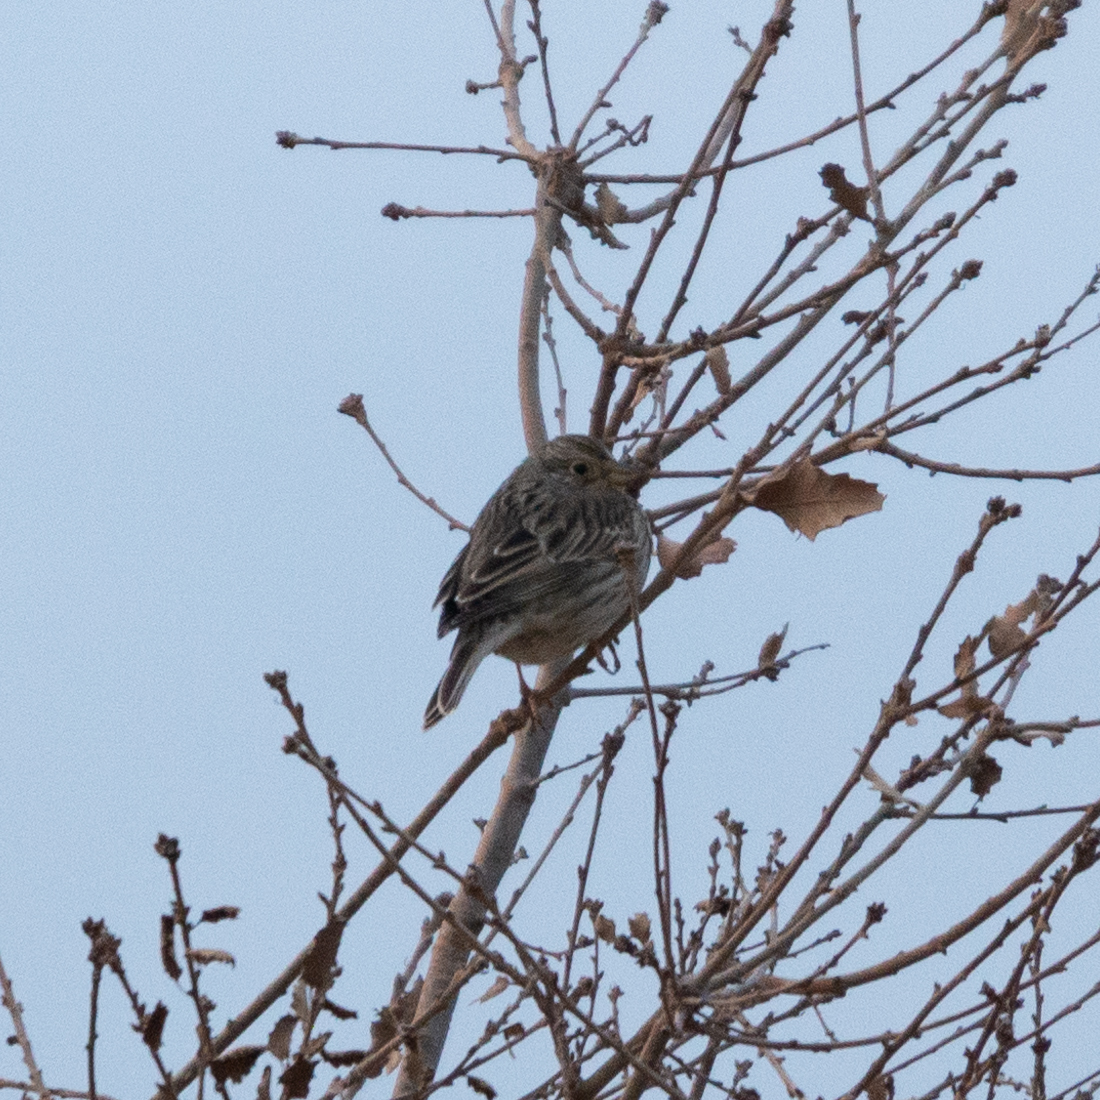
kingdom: Animalia
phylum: Chordata
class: Aves
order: Passeriformes
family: Emberizidae
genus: Emberiza
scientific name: Emberiza calandra
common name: Corn bunting
